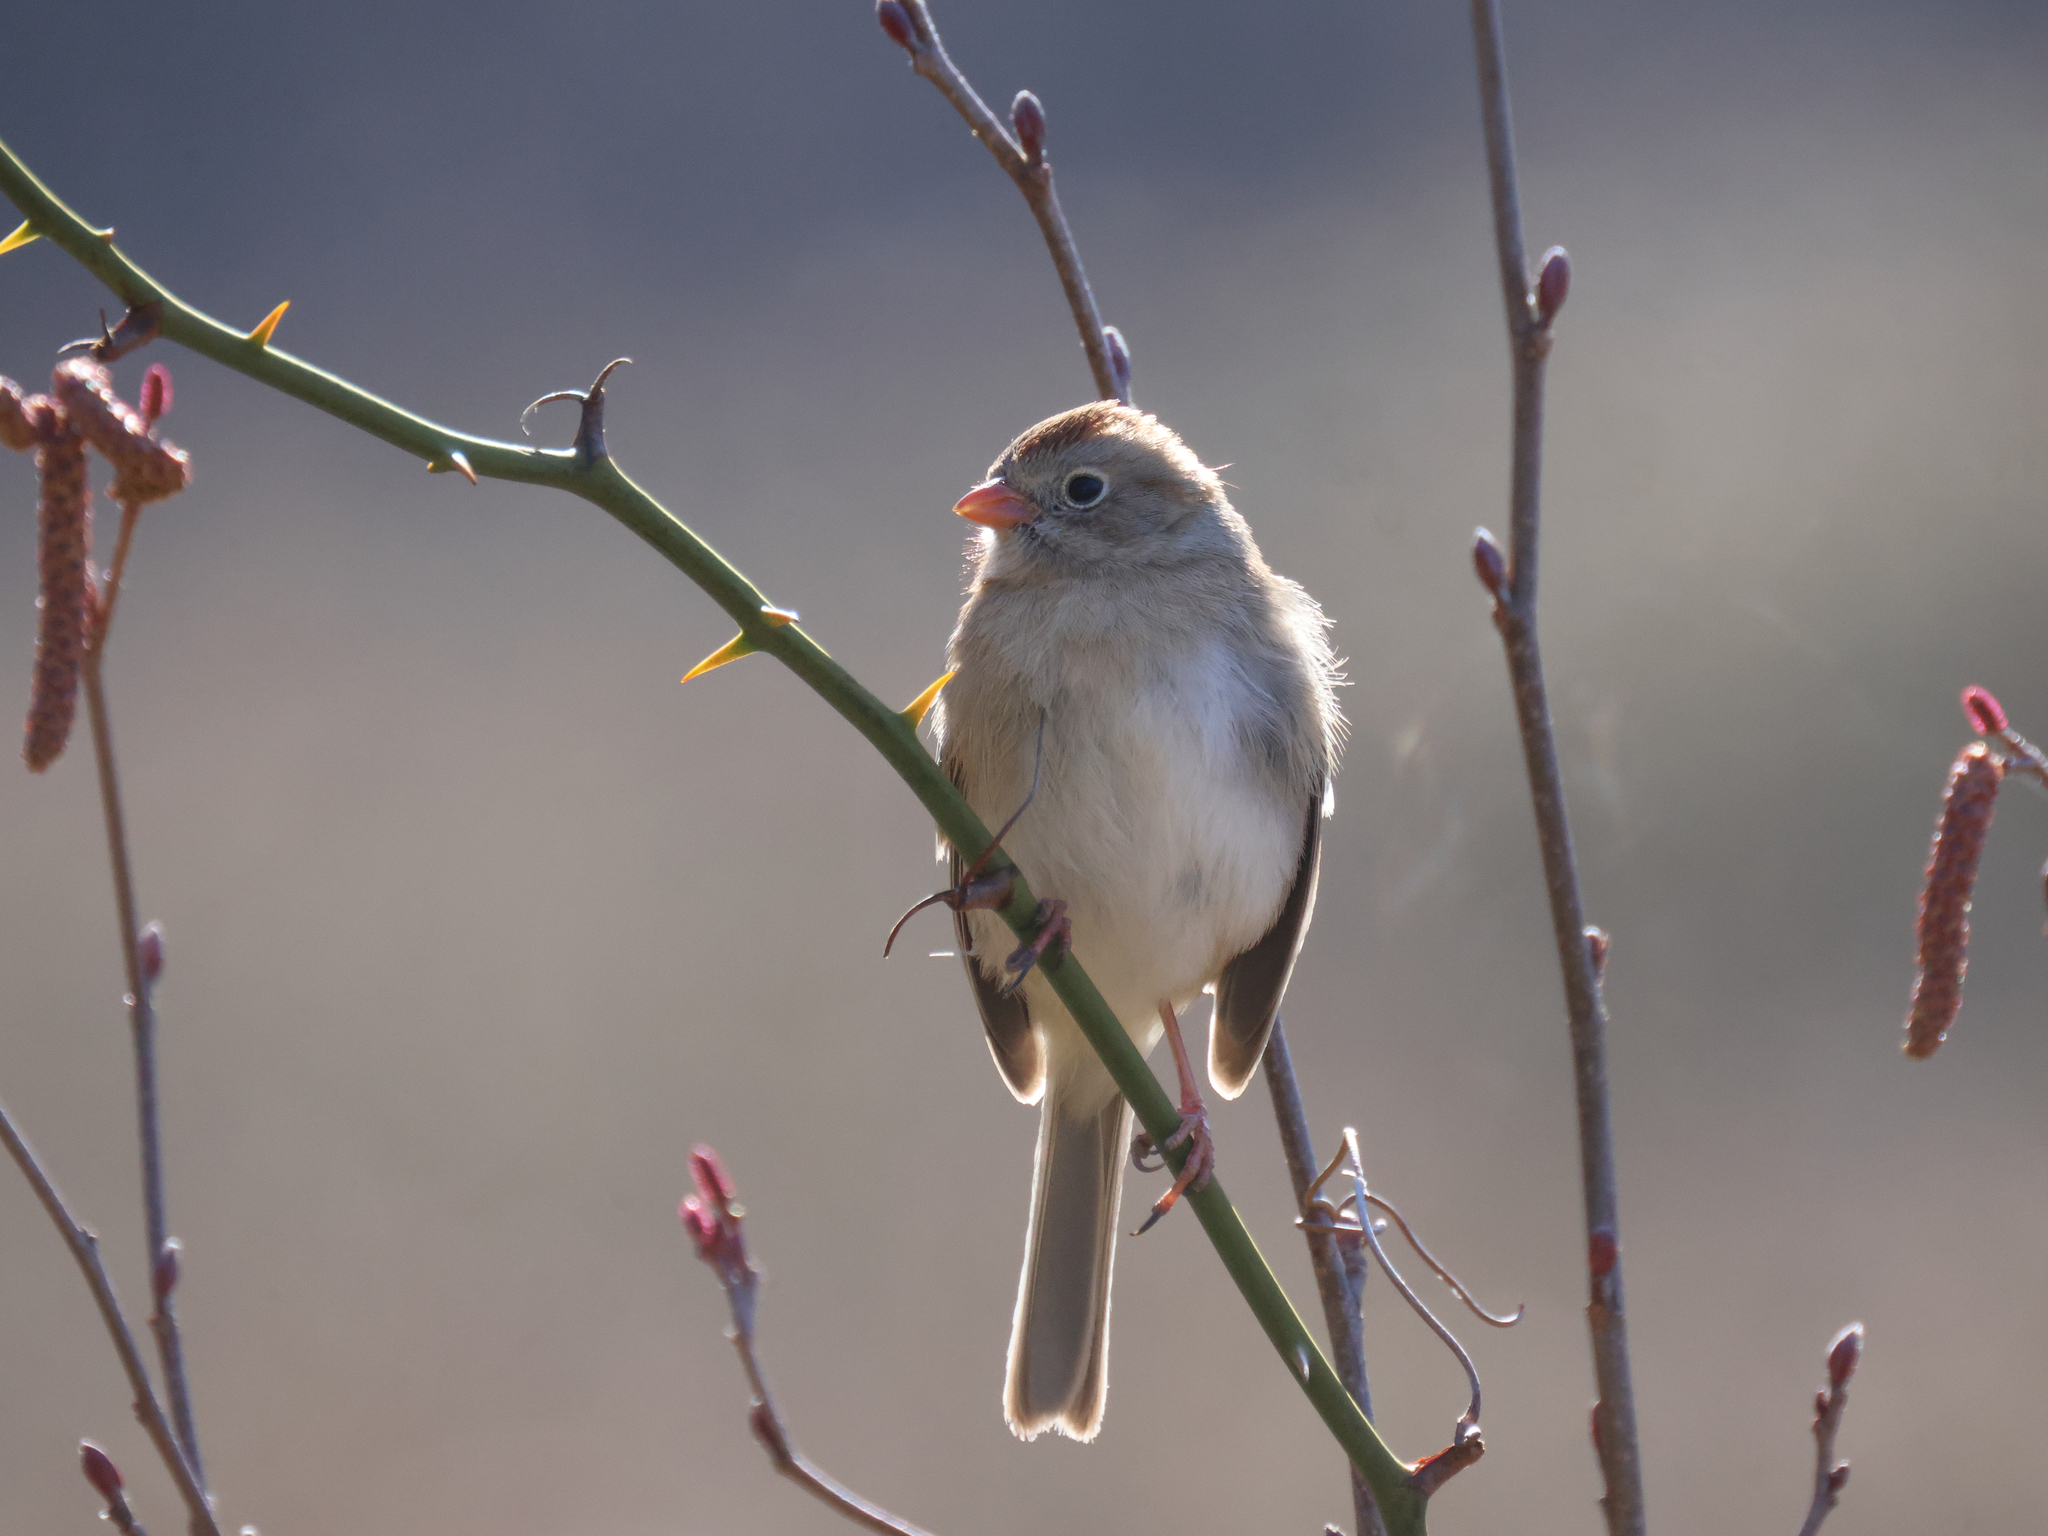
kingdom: Animalia
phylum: Chordata
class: Aves
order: Passeriformes
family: Passerellidae
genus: Spizella
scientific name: Spizella pusilla
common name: Field sparrow
